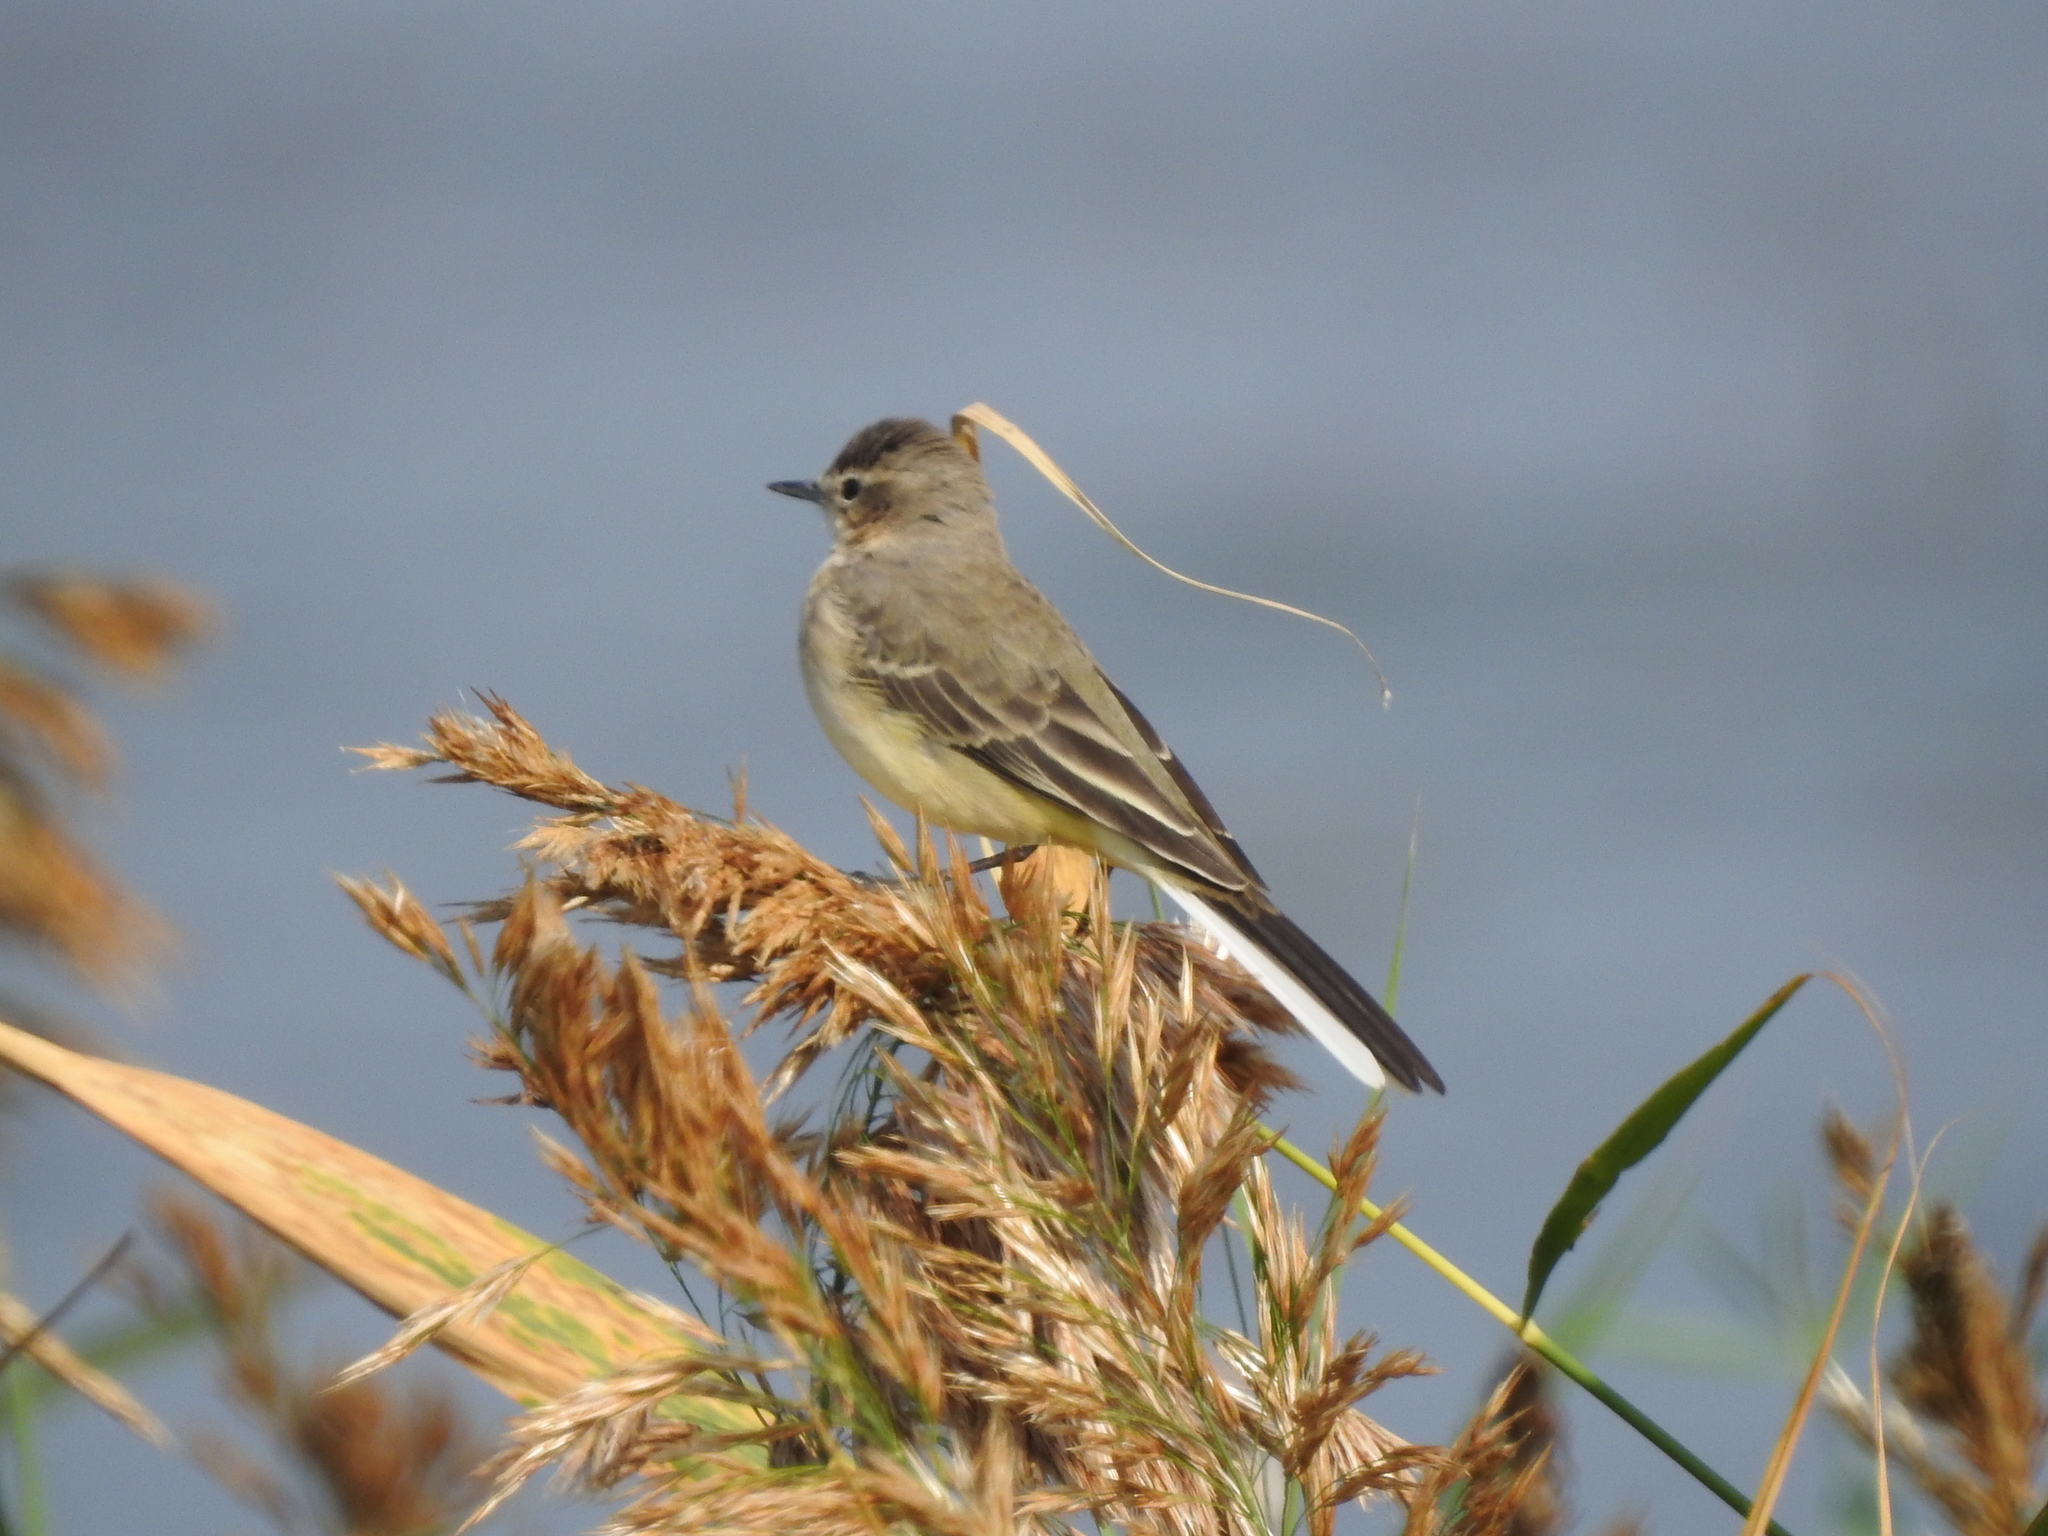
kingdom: Animalia
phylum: Chordata
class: Aves
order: Passeriformes
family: Motacillidae
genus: Motacilla
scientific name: Motacilla flava
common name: Western yellow wagtail
